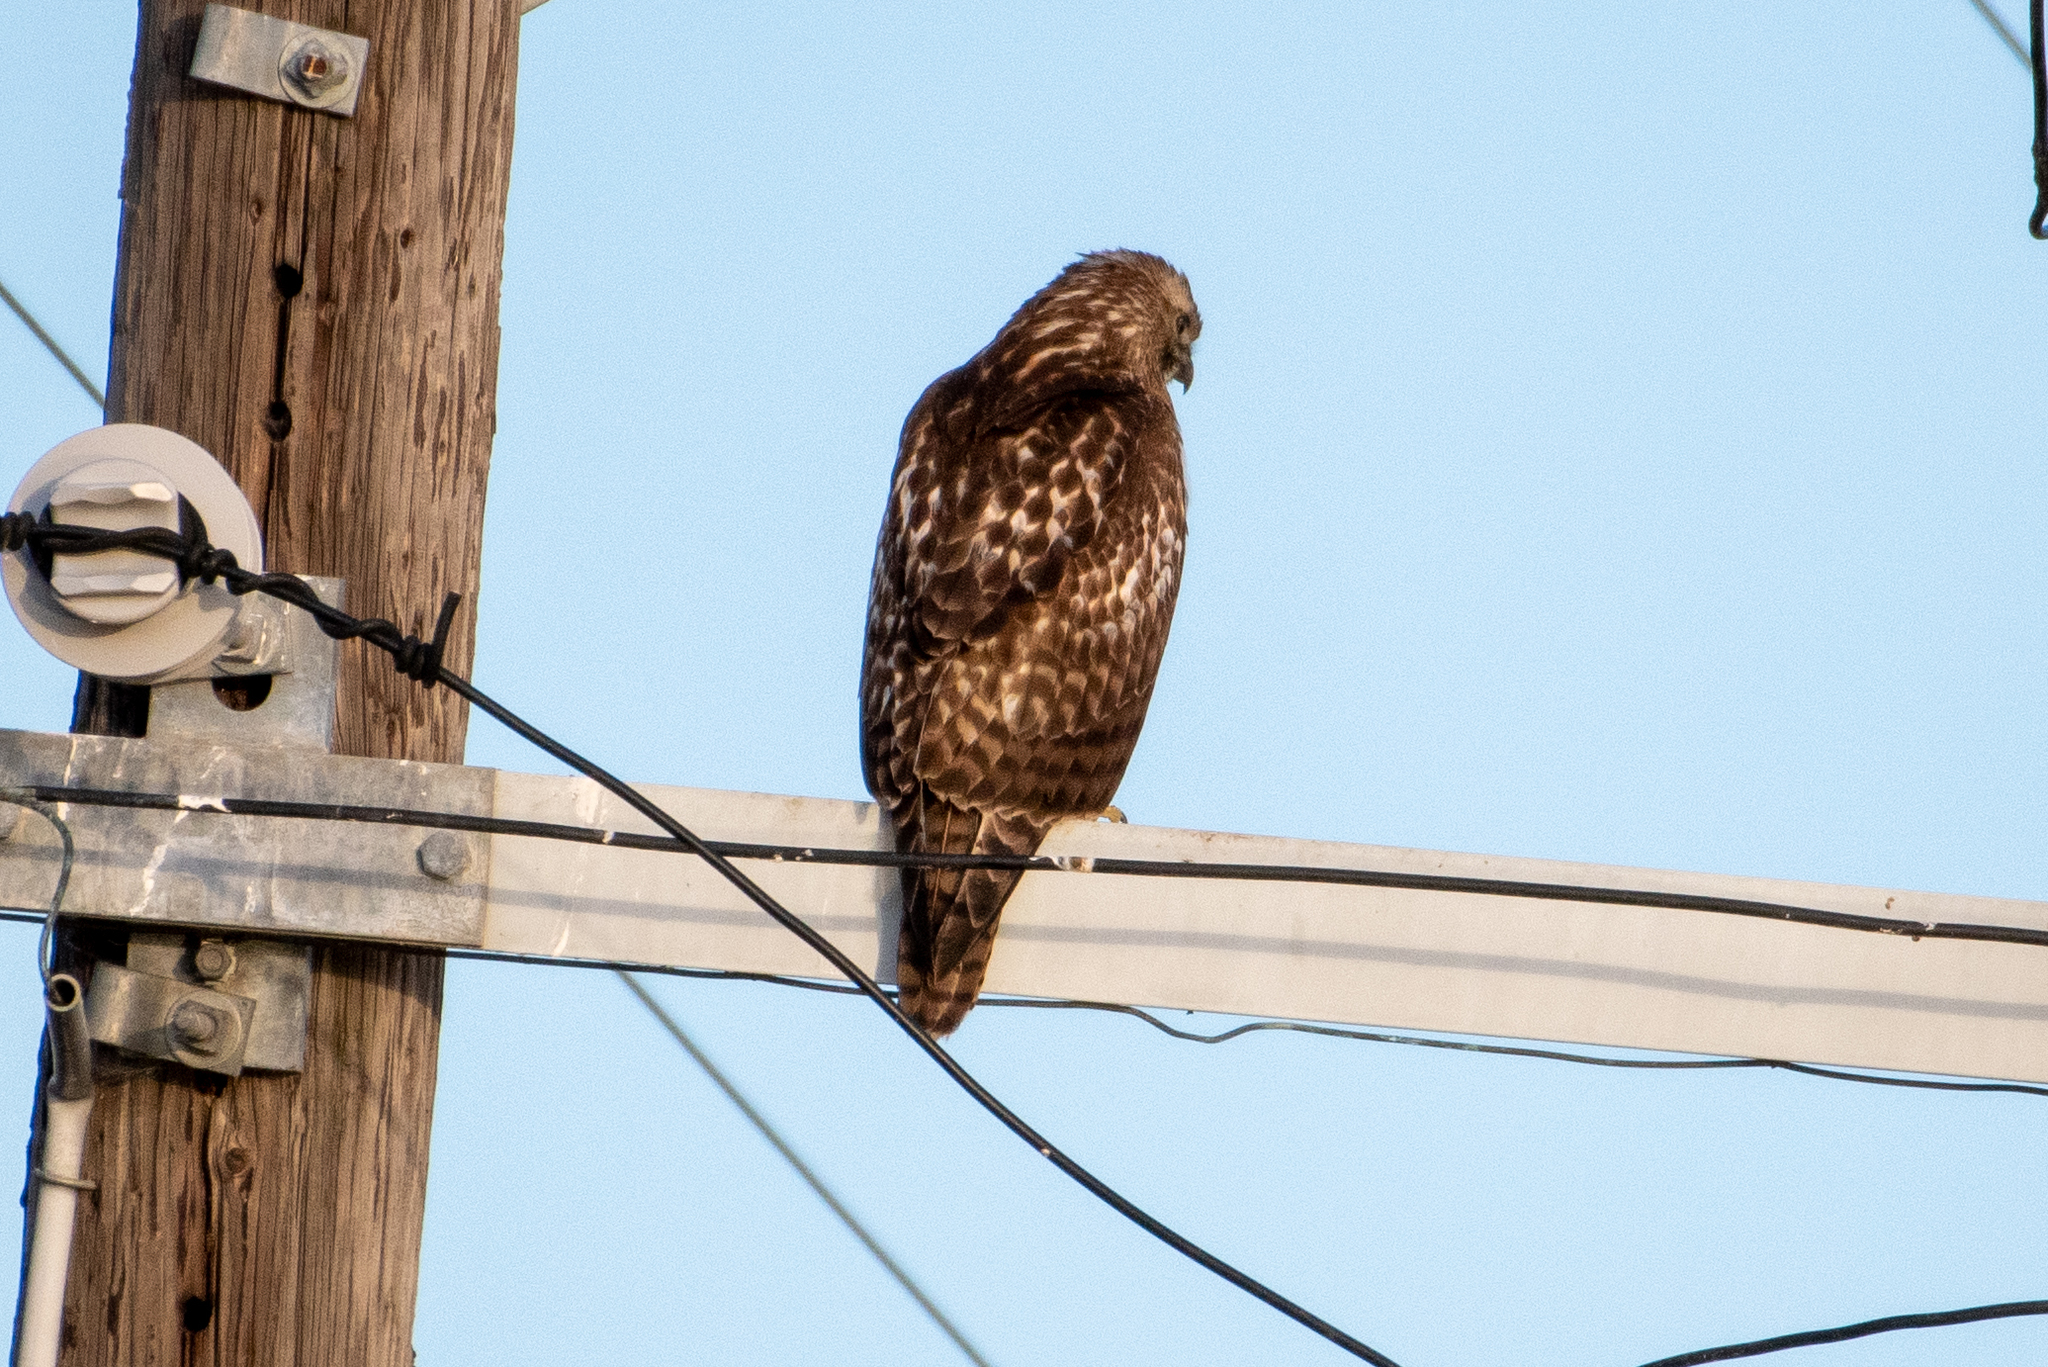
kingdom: Animalia
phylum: Chordata
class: Aves
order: Accipitriformes
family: Accipitridae
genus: Buteo
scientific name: Buteo jamaicensis
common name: Red-tailed hawk
